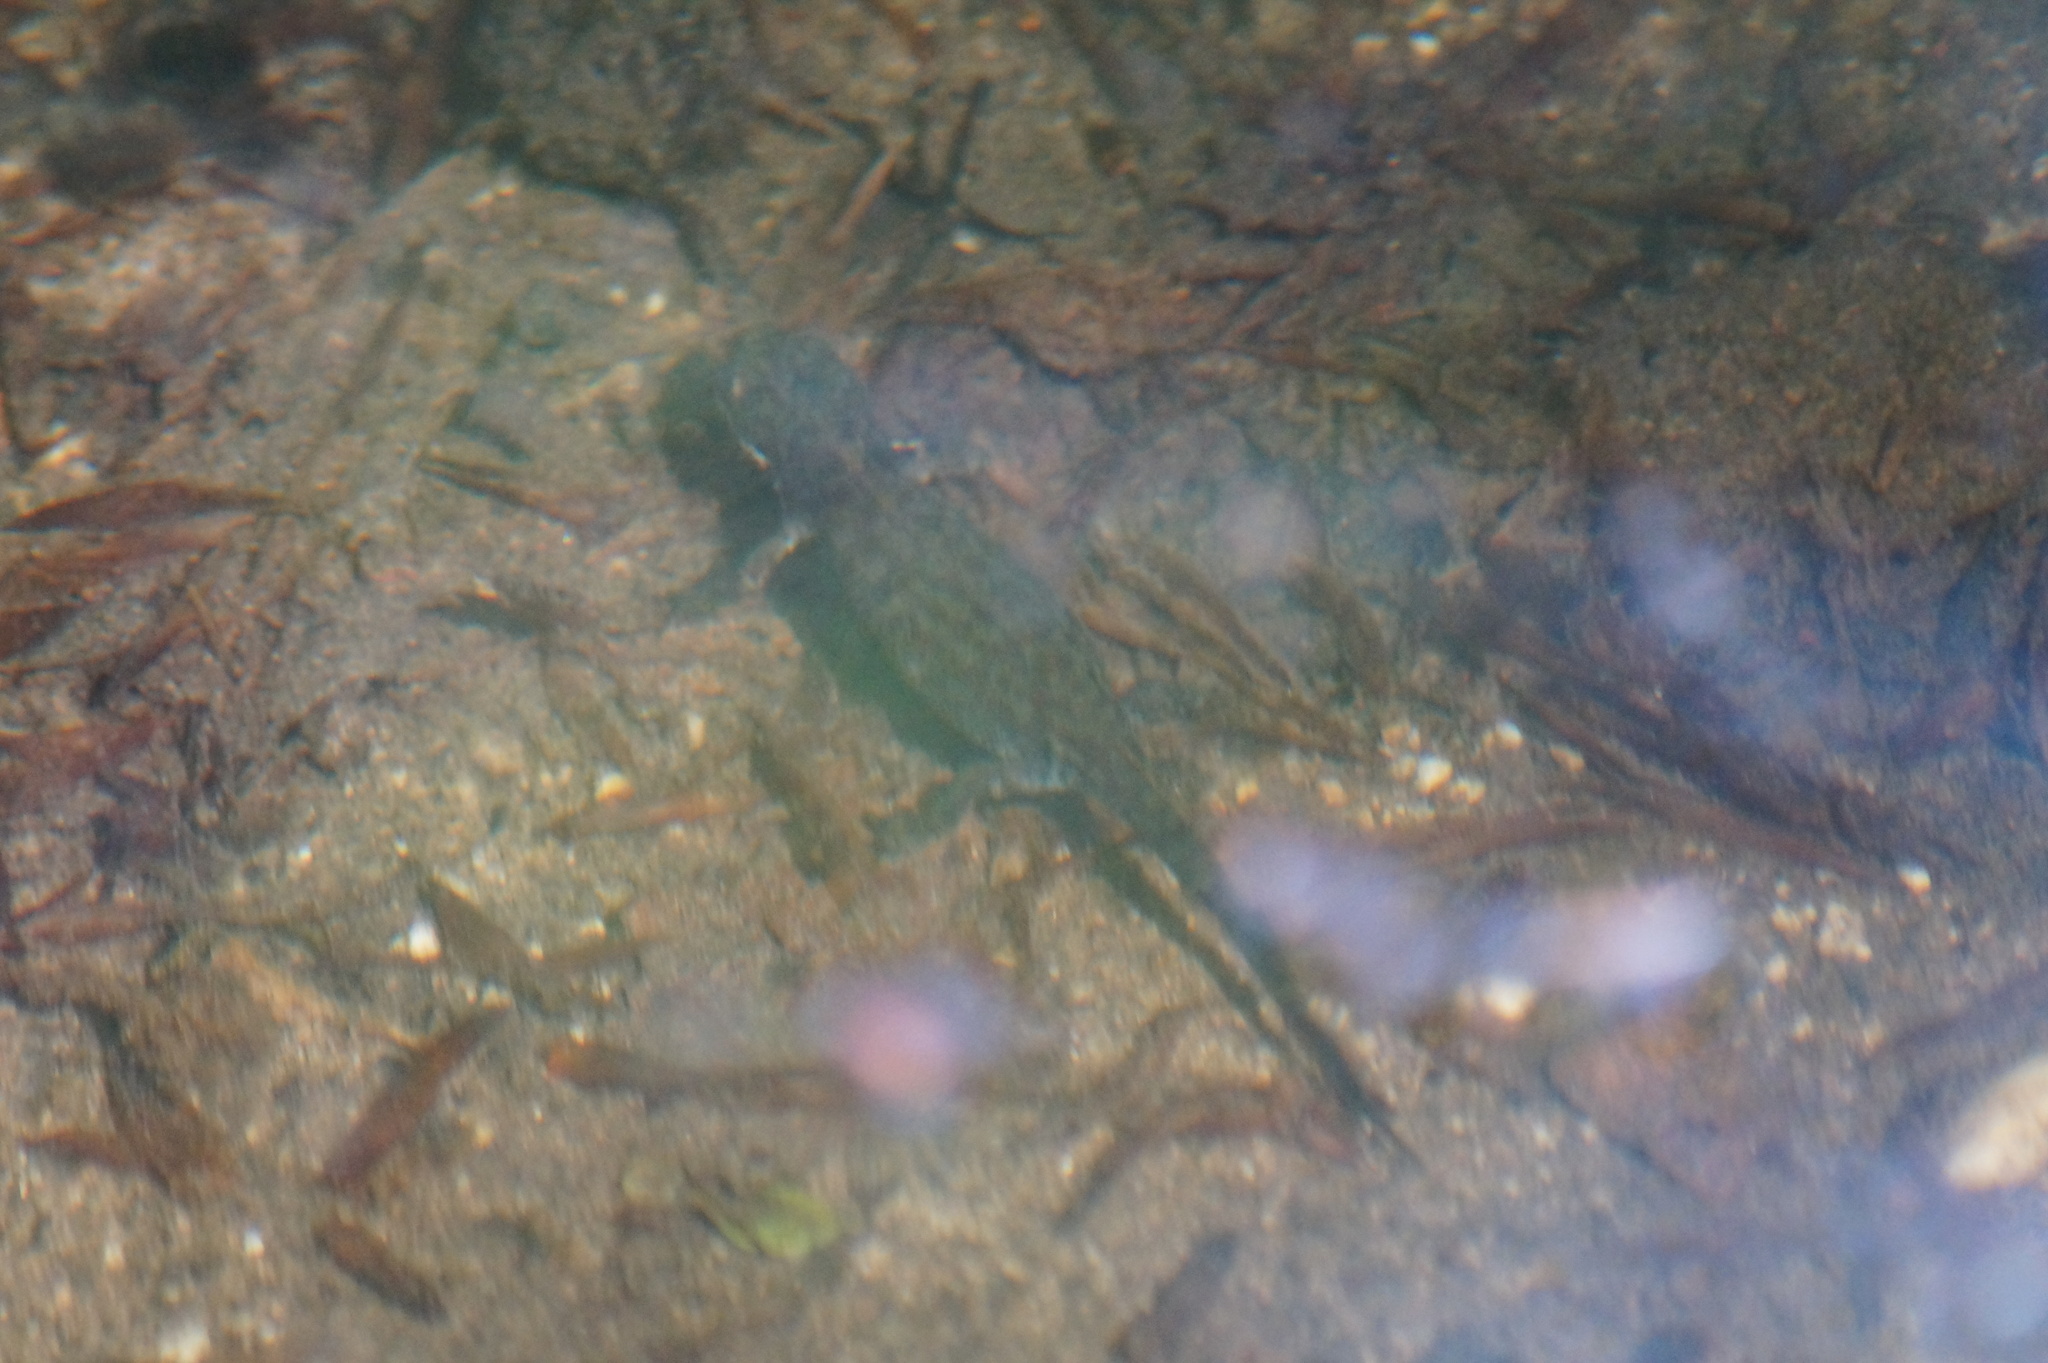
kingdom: Animalia
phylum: Chordata
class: Amphibia
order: Caudata
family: Salamandridae
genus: Ichthyosaura
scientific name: Ichthyosaura alpestris
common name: Alpine newt
